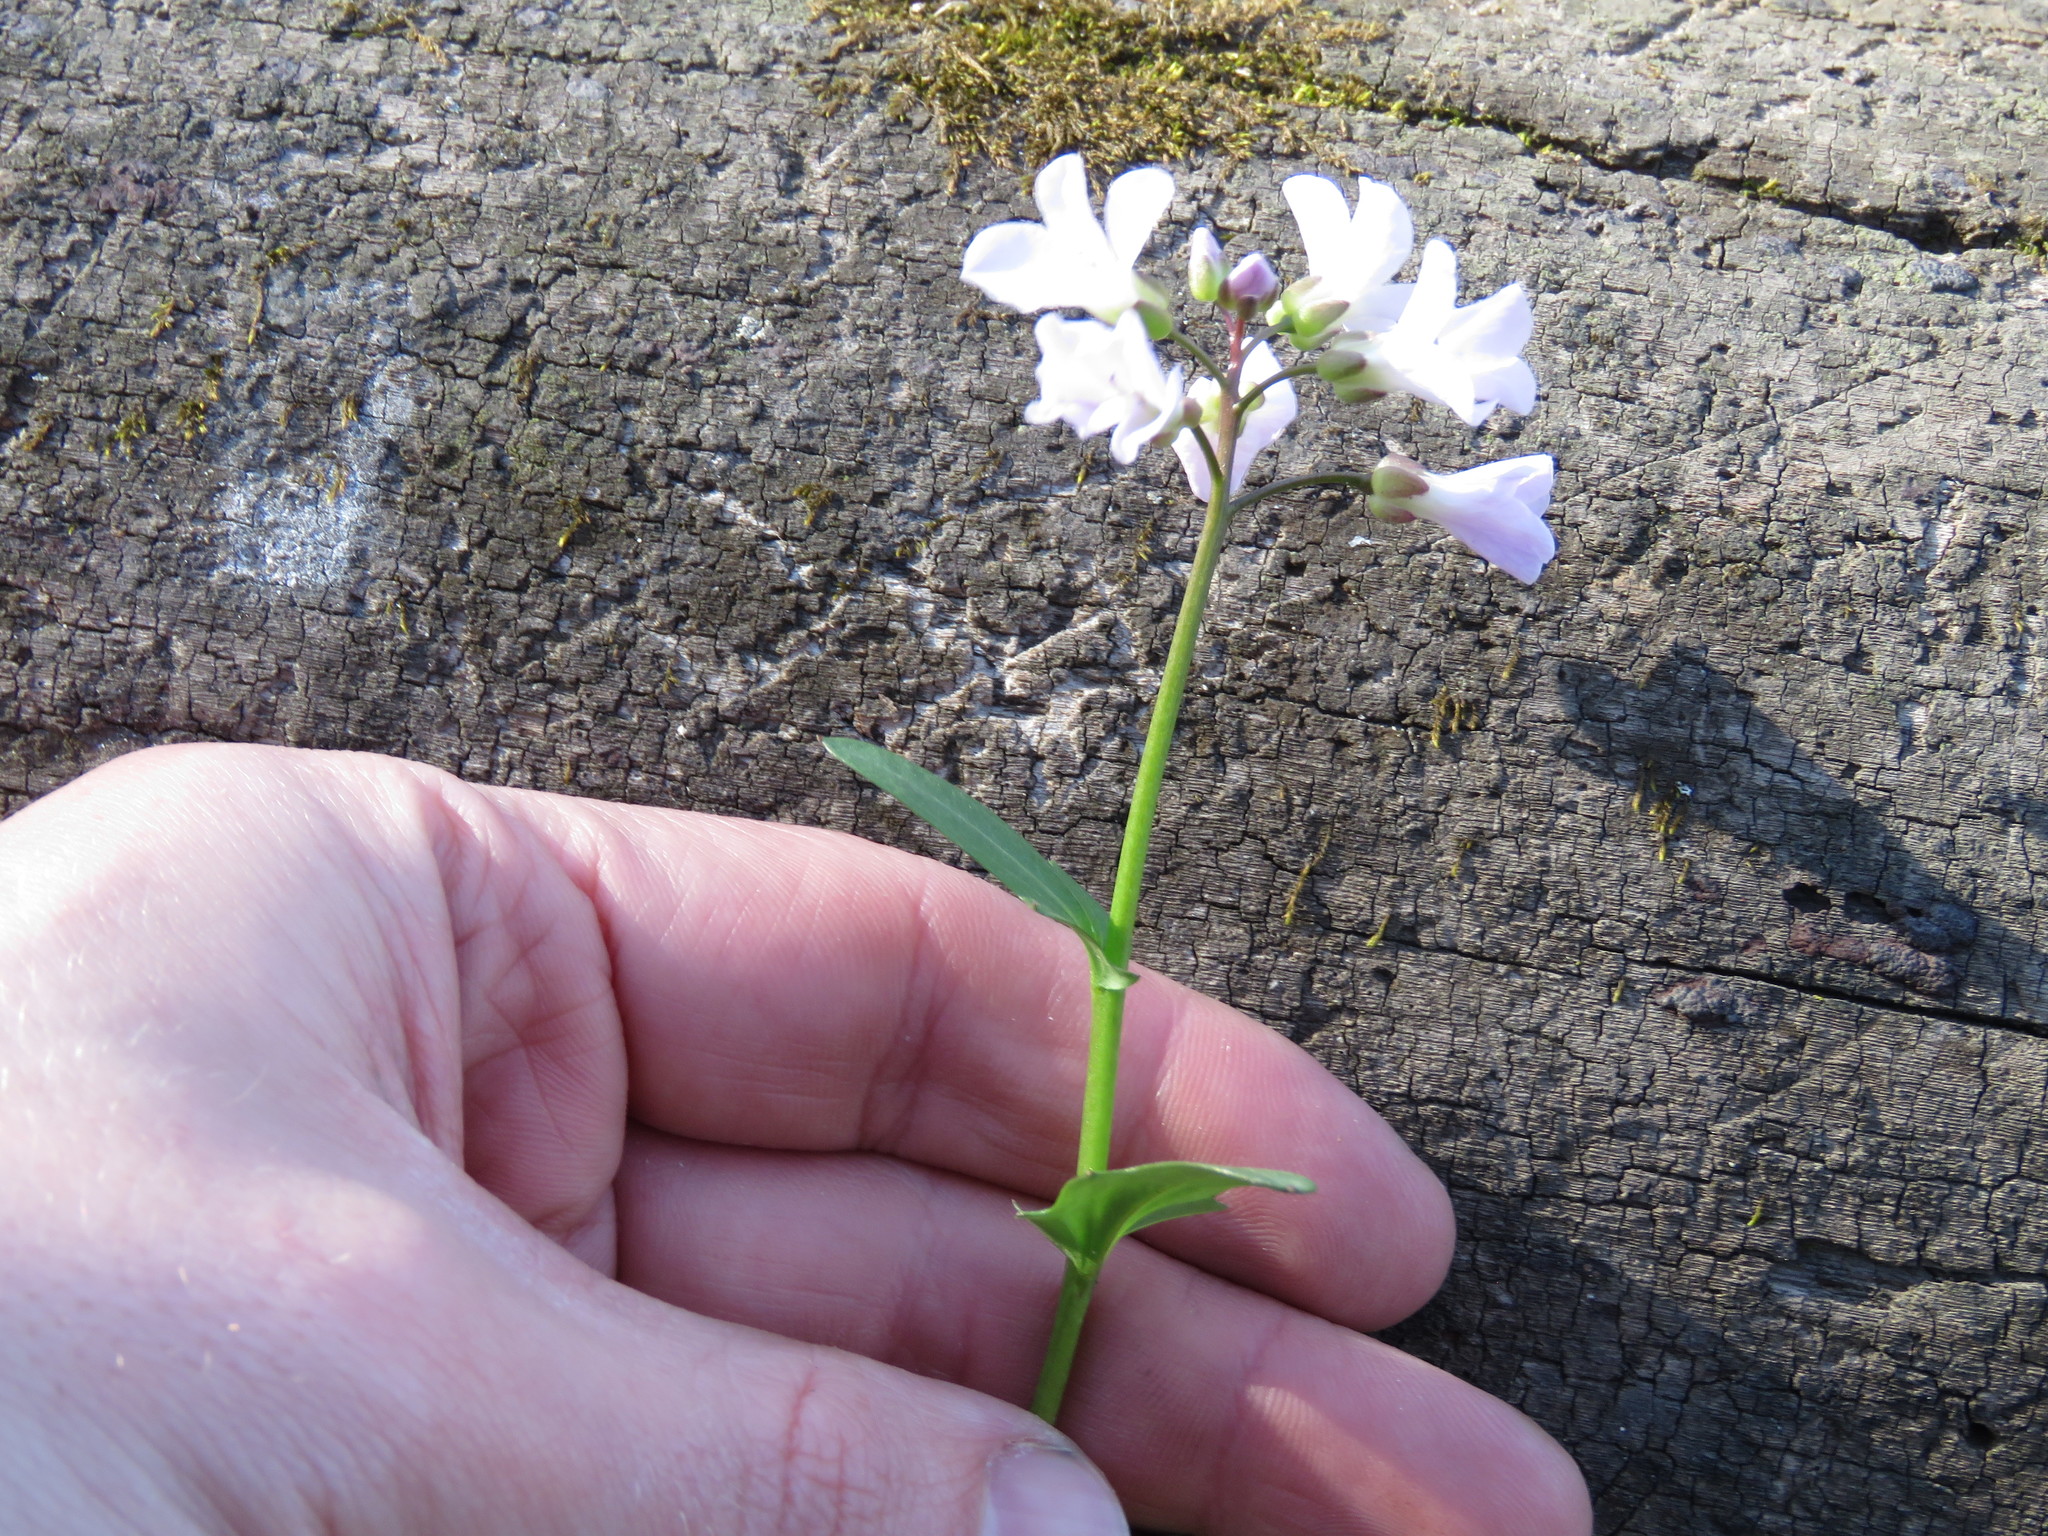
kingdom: Plantae
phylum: Tracheophyta
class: Magnoliopsida
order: Brassicales
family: Brassicaceae
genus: Cardamine
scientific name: Cardamine douglassii
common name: Purple cress
